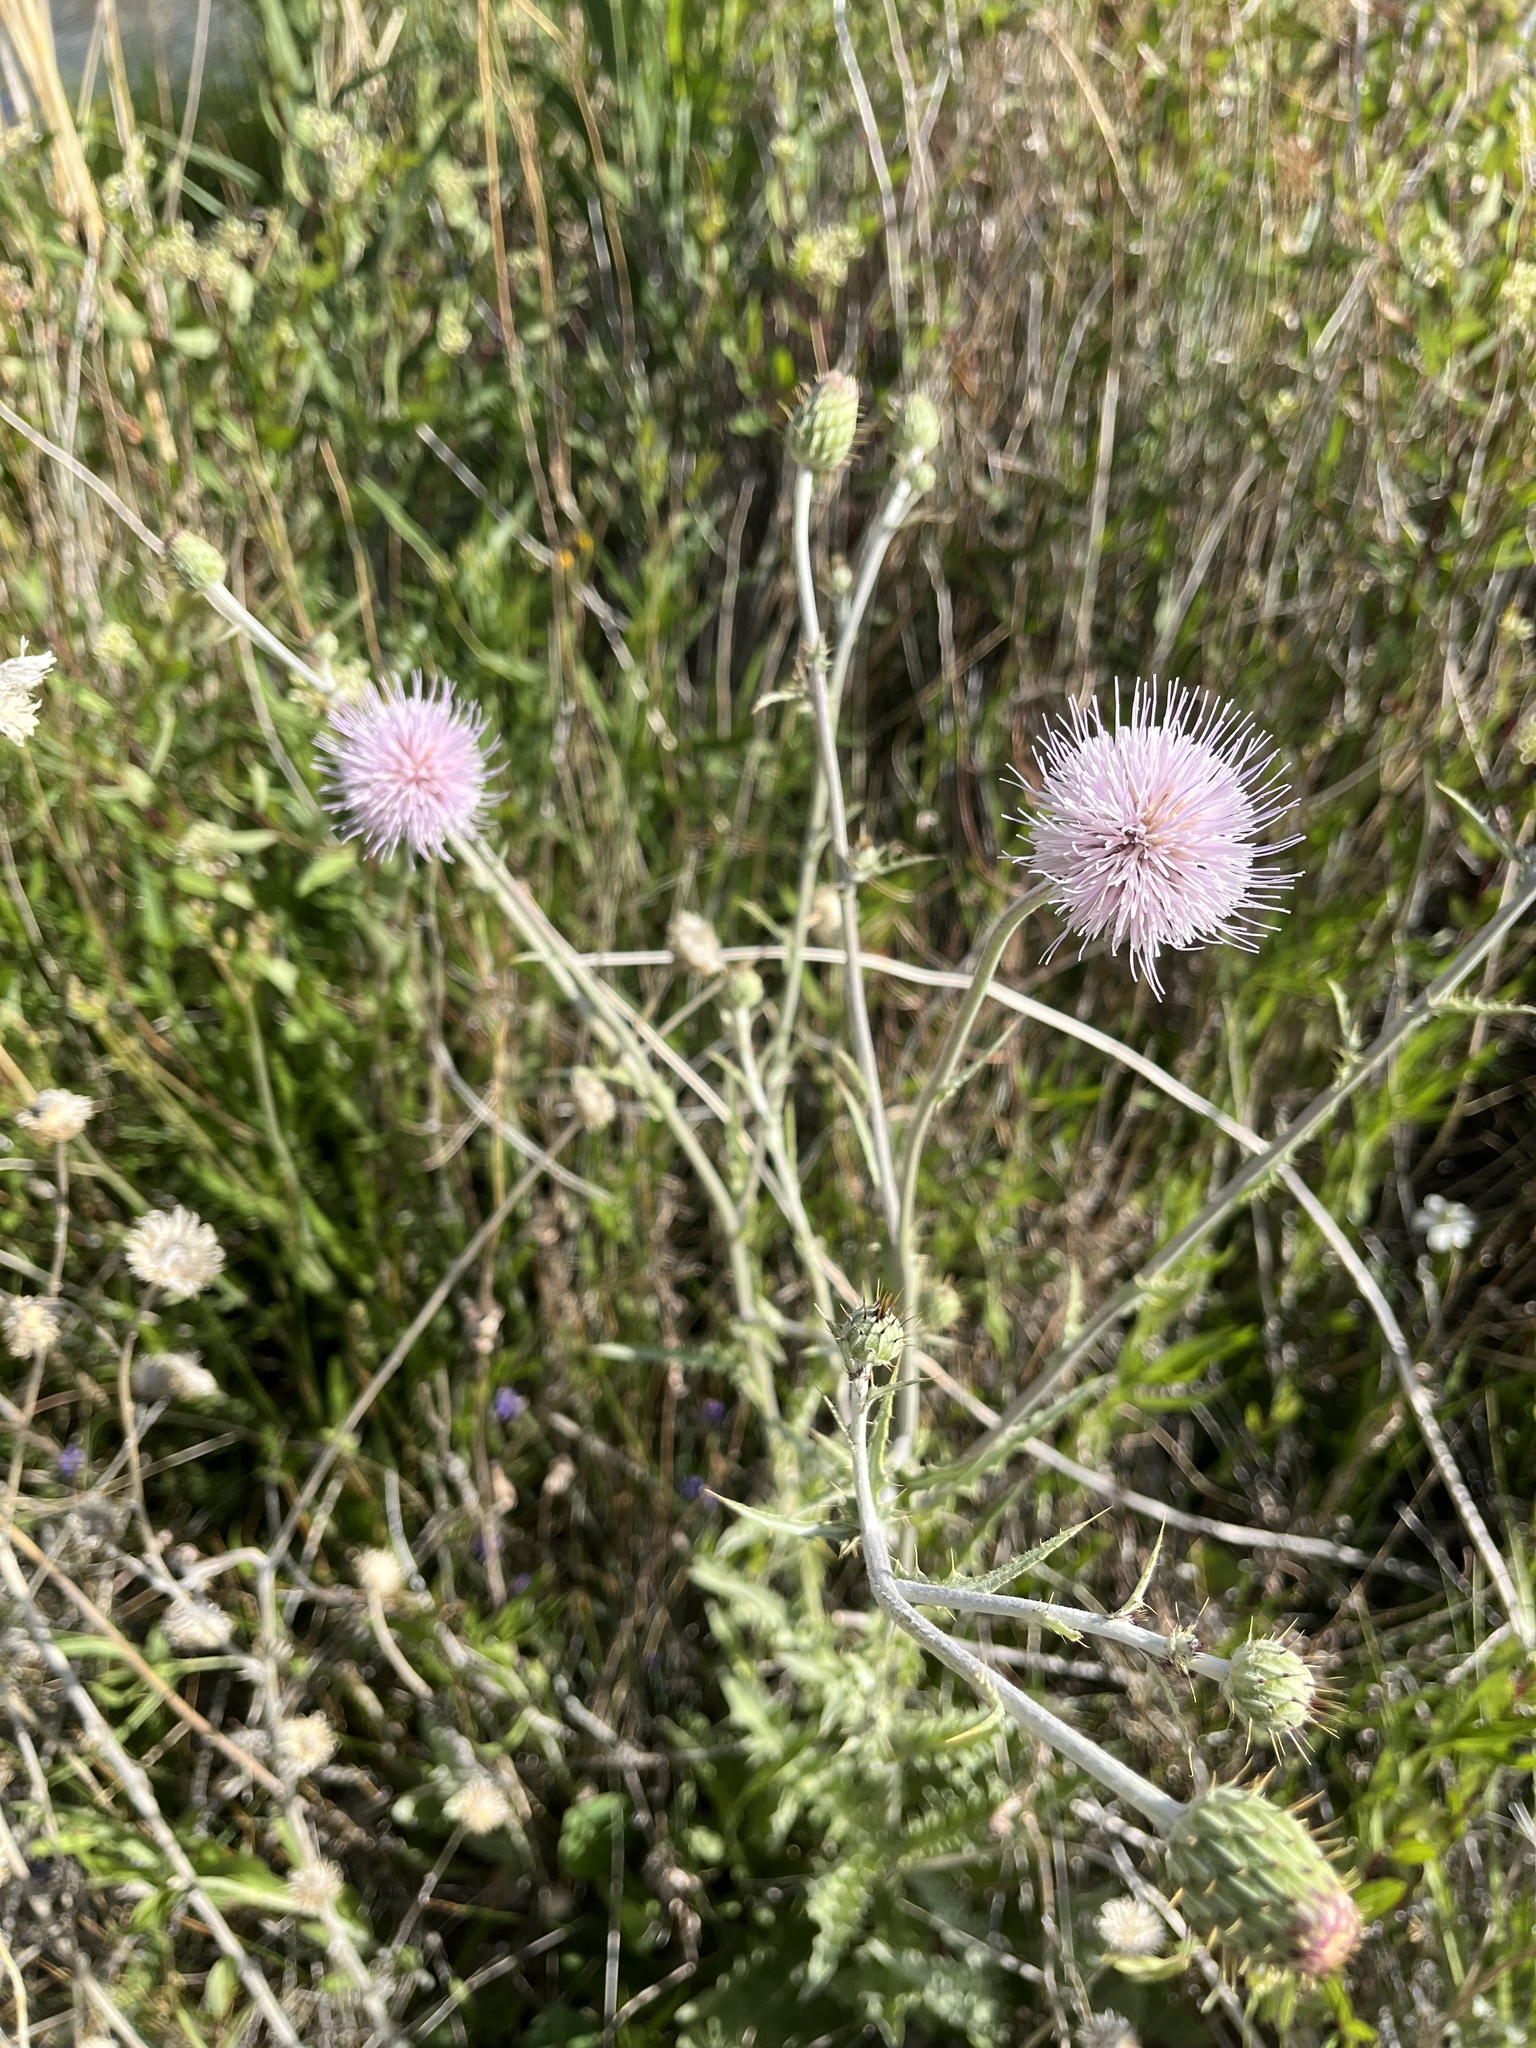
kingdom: Plantae
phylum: Tracheophyta
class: Magnoliopsida
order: Asterales
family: Asteraceae
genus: Cirsium
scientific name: Cirsium mohavense
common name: Mojave thistle
